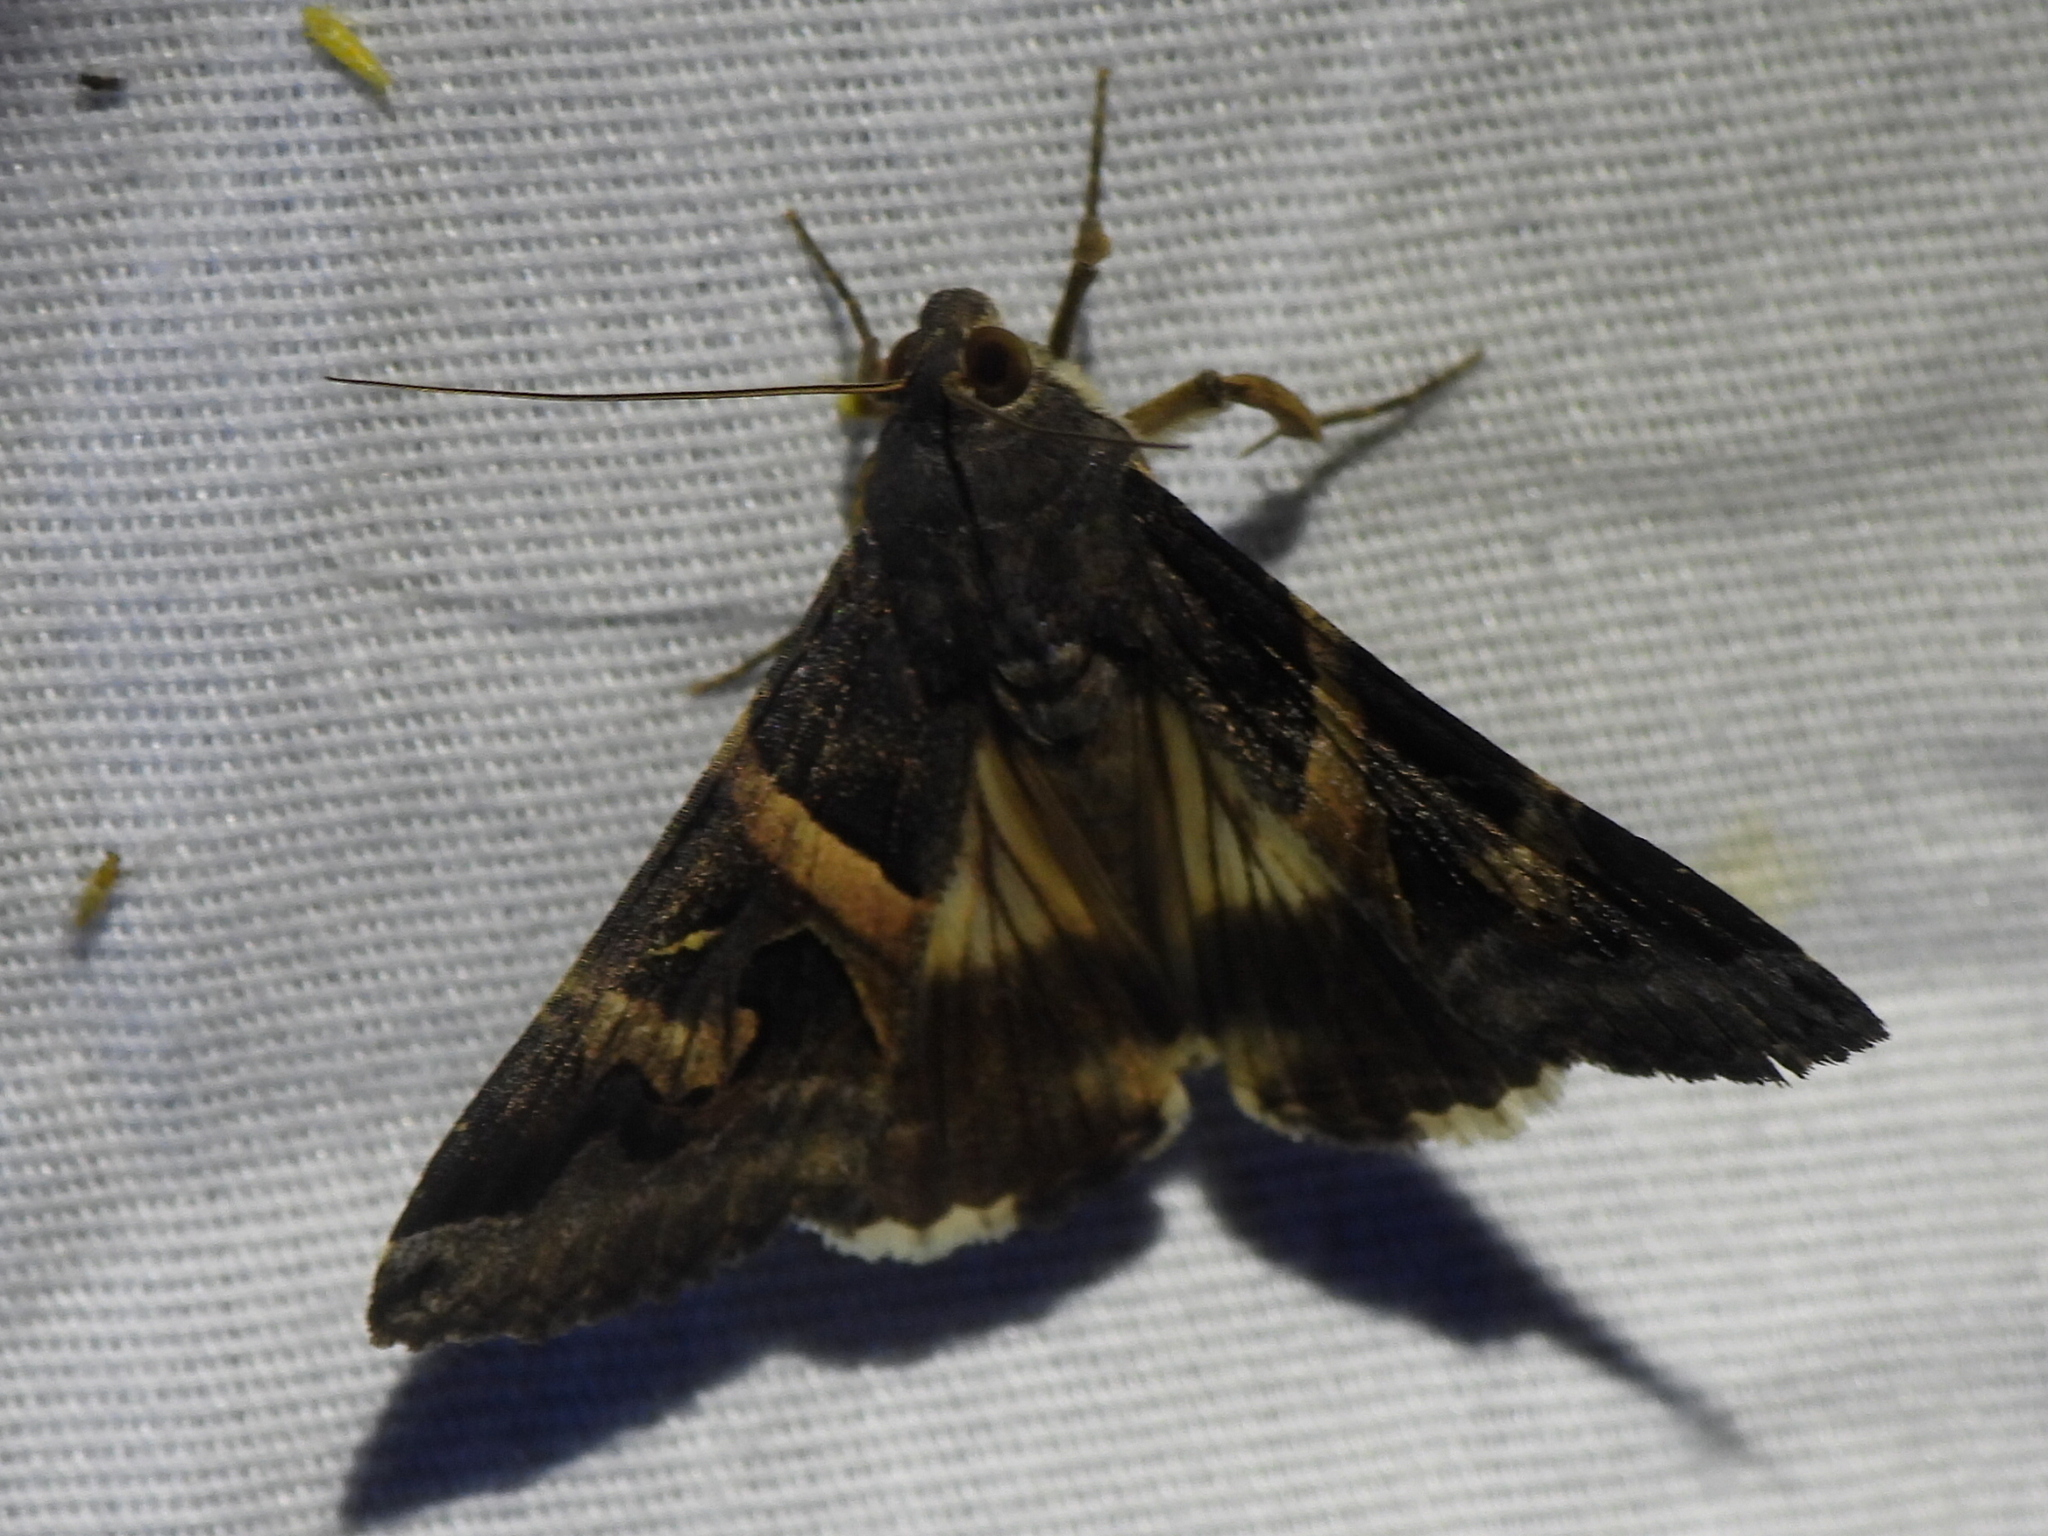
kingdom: Animalia
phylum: Arthropoda
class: Insecta
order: Lepidoptera
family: Erebidae
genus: Melipotis
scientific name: Melipotis indomita
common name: Moth
